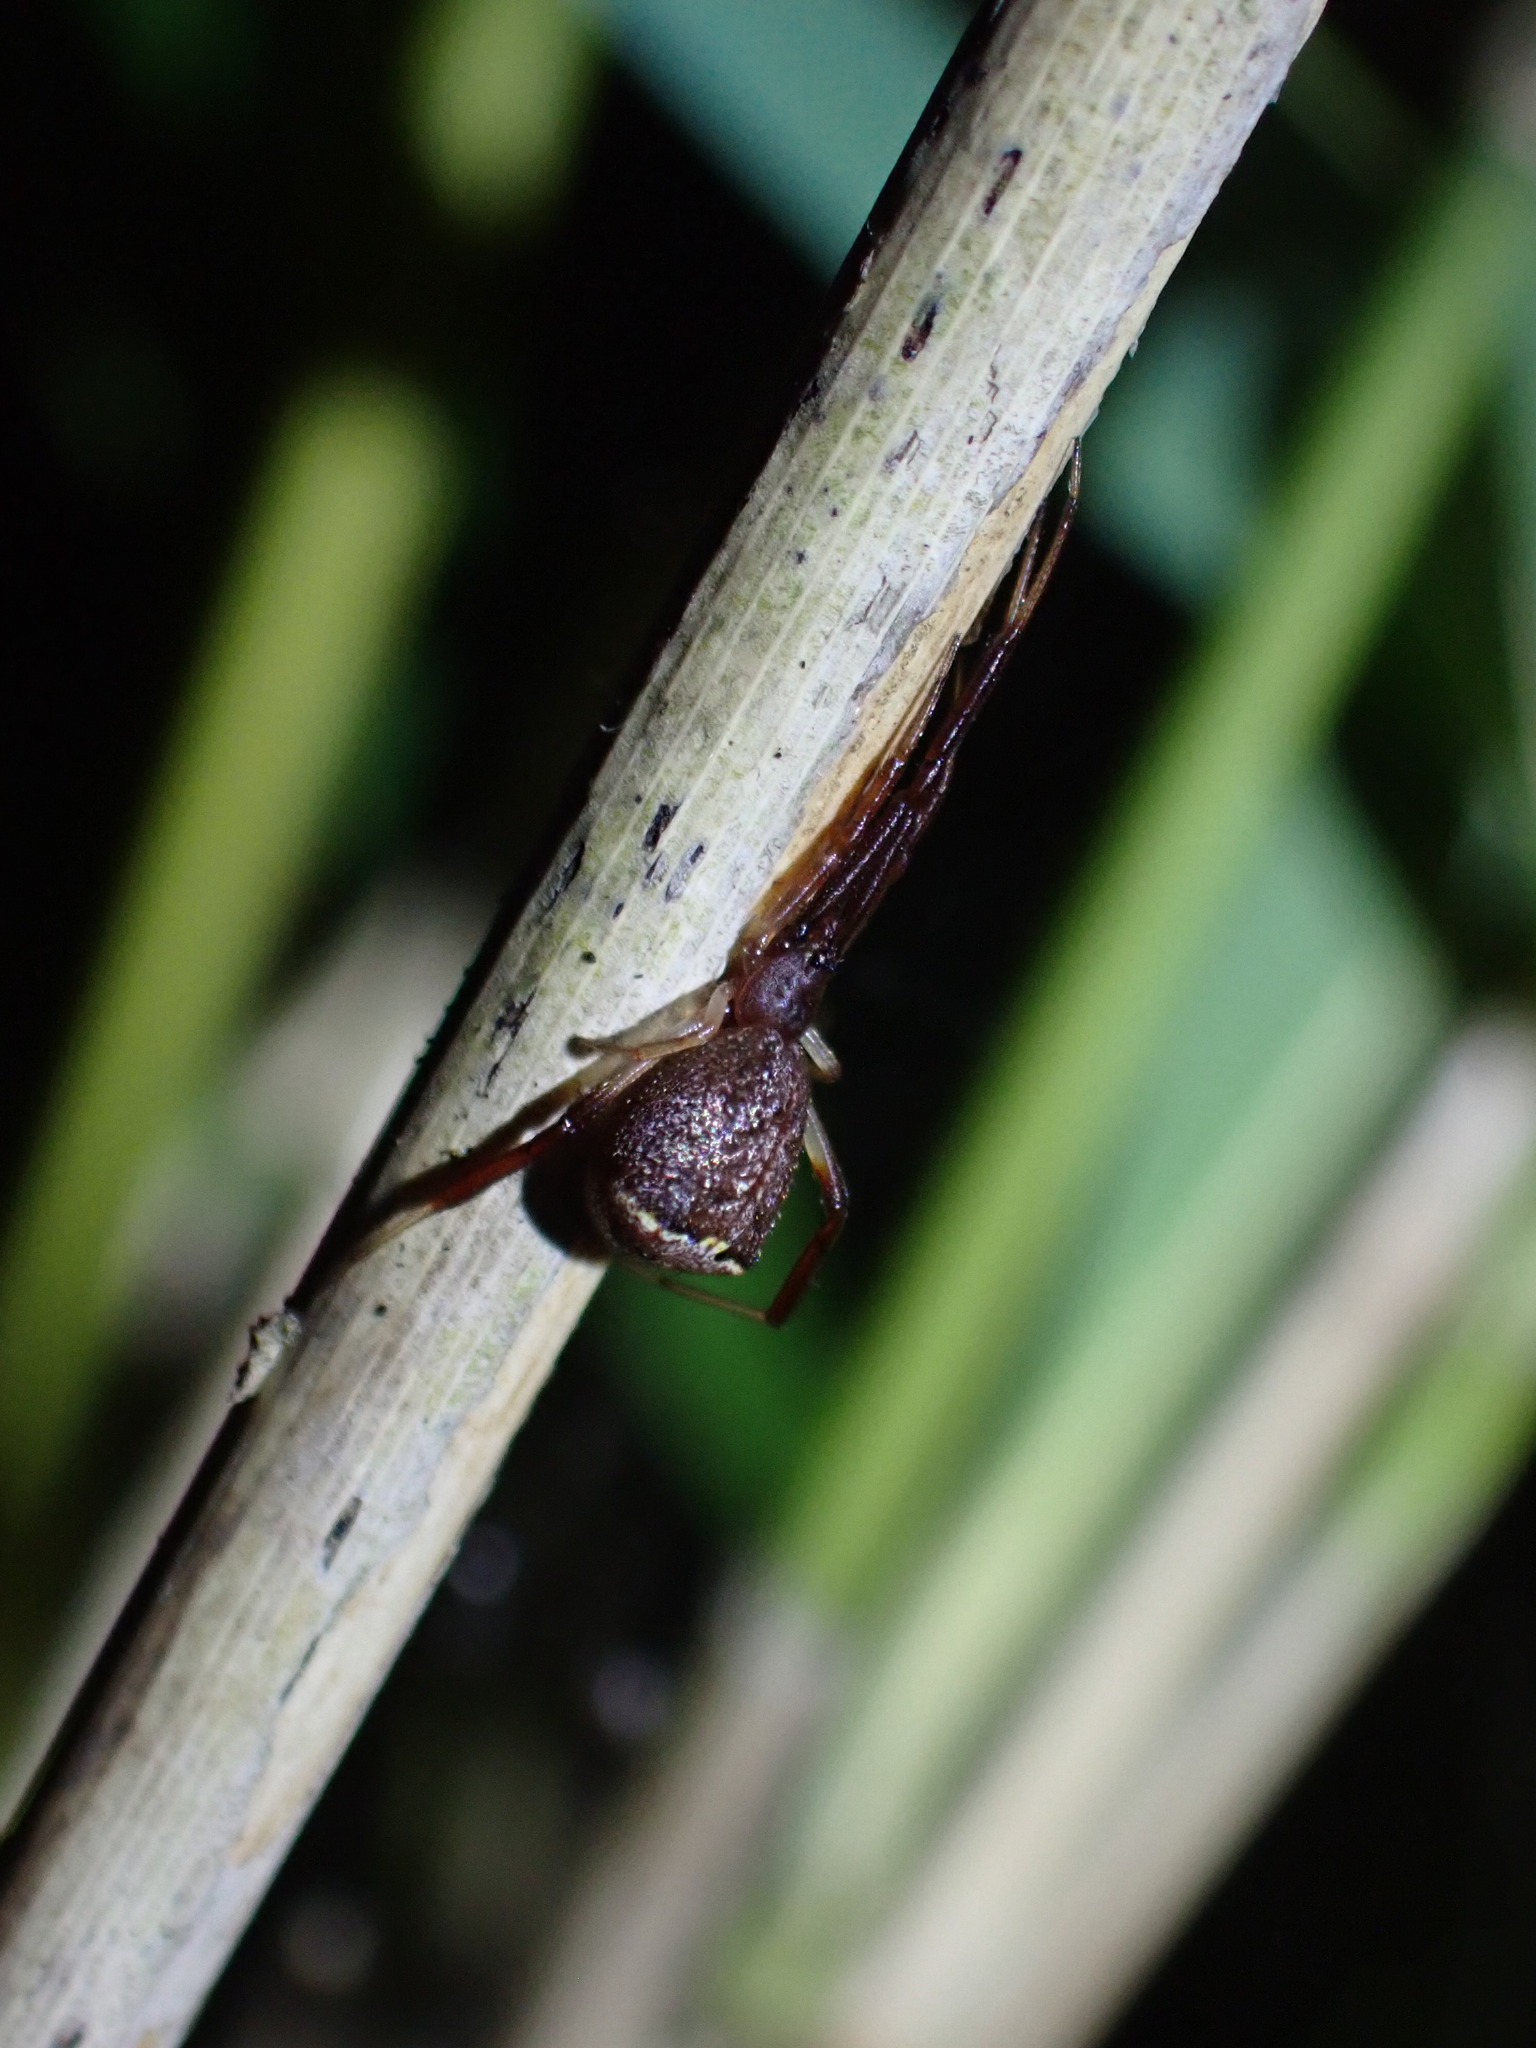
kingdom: Animalia
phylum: Arthropoda
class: Arachnida
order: Araneae
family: Theridiidae
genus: Episinus
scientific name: Episinus truncatus
